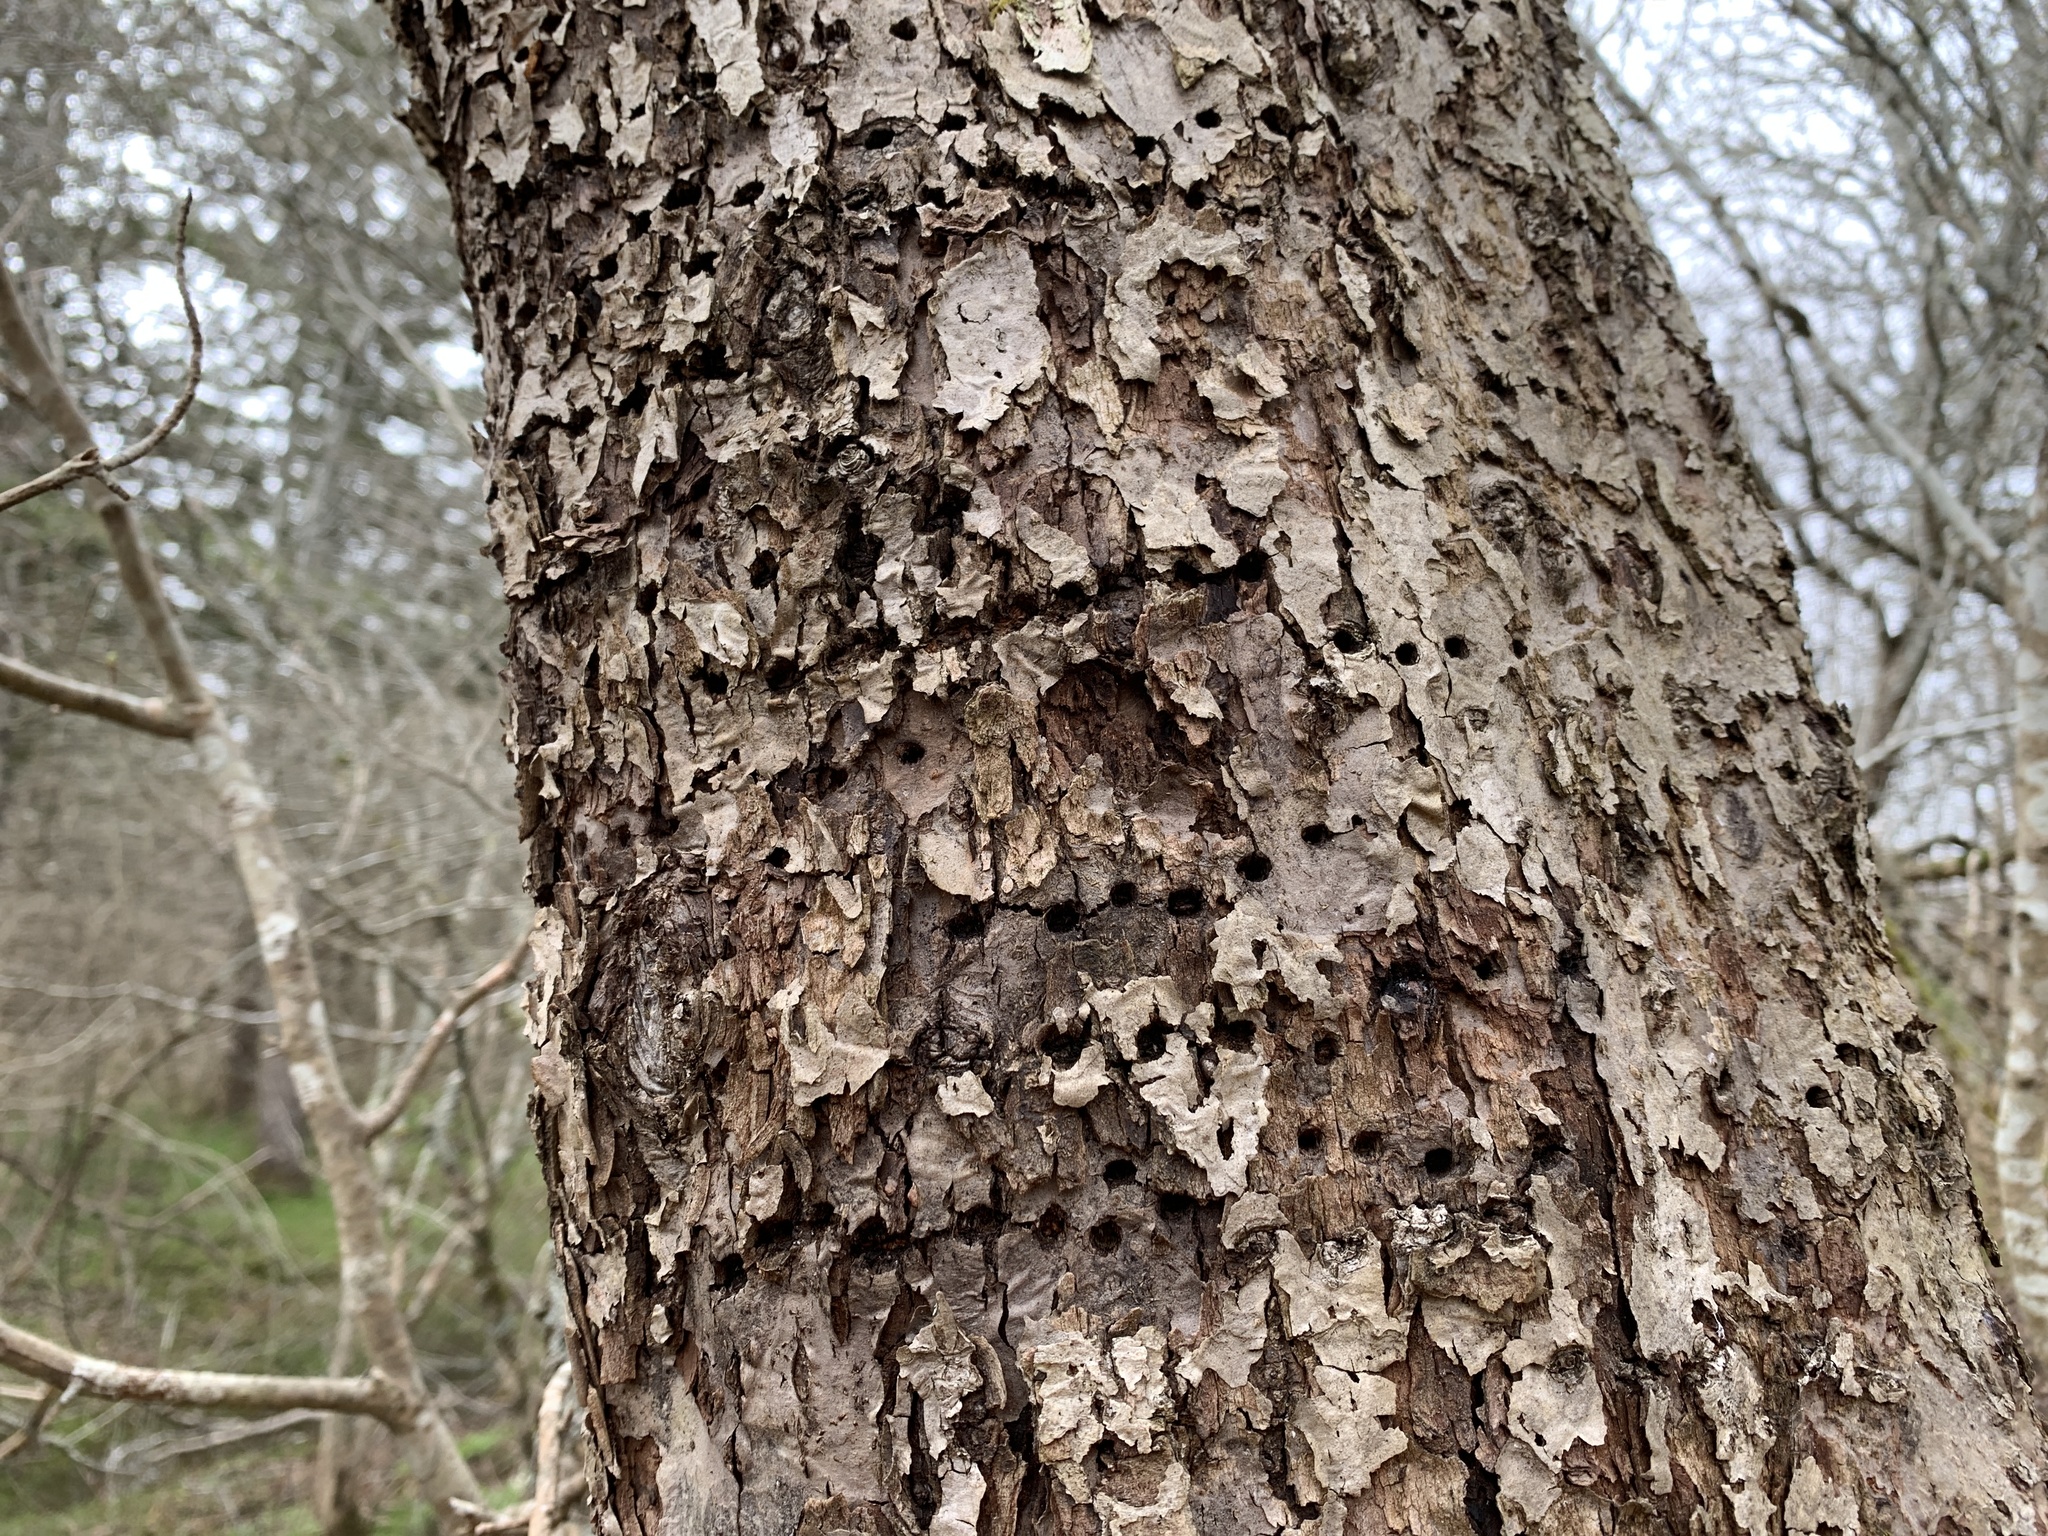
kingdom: Animalia
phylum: Chordata
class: Aves
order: Piciformes
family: Picidae
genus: Sphyrapicus
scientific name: Sphyrapicus varius
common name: Yellow-bellied sapsucker
